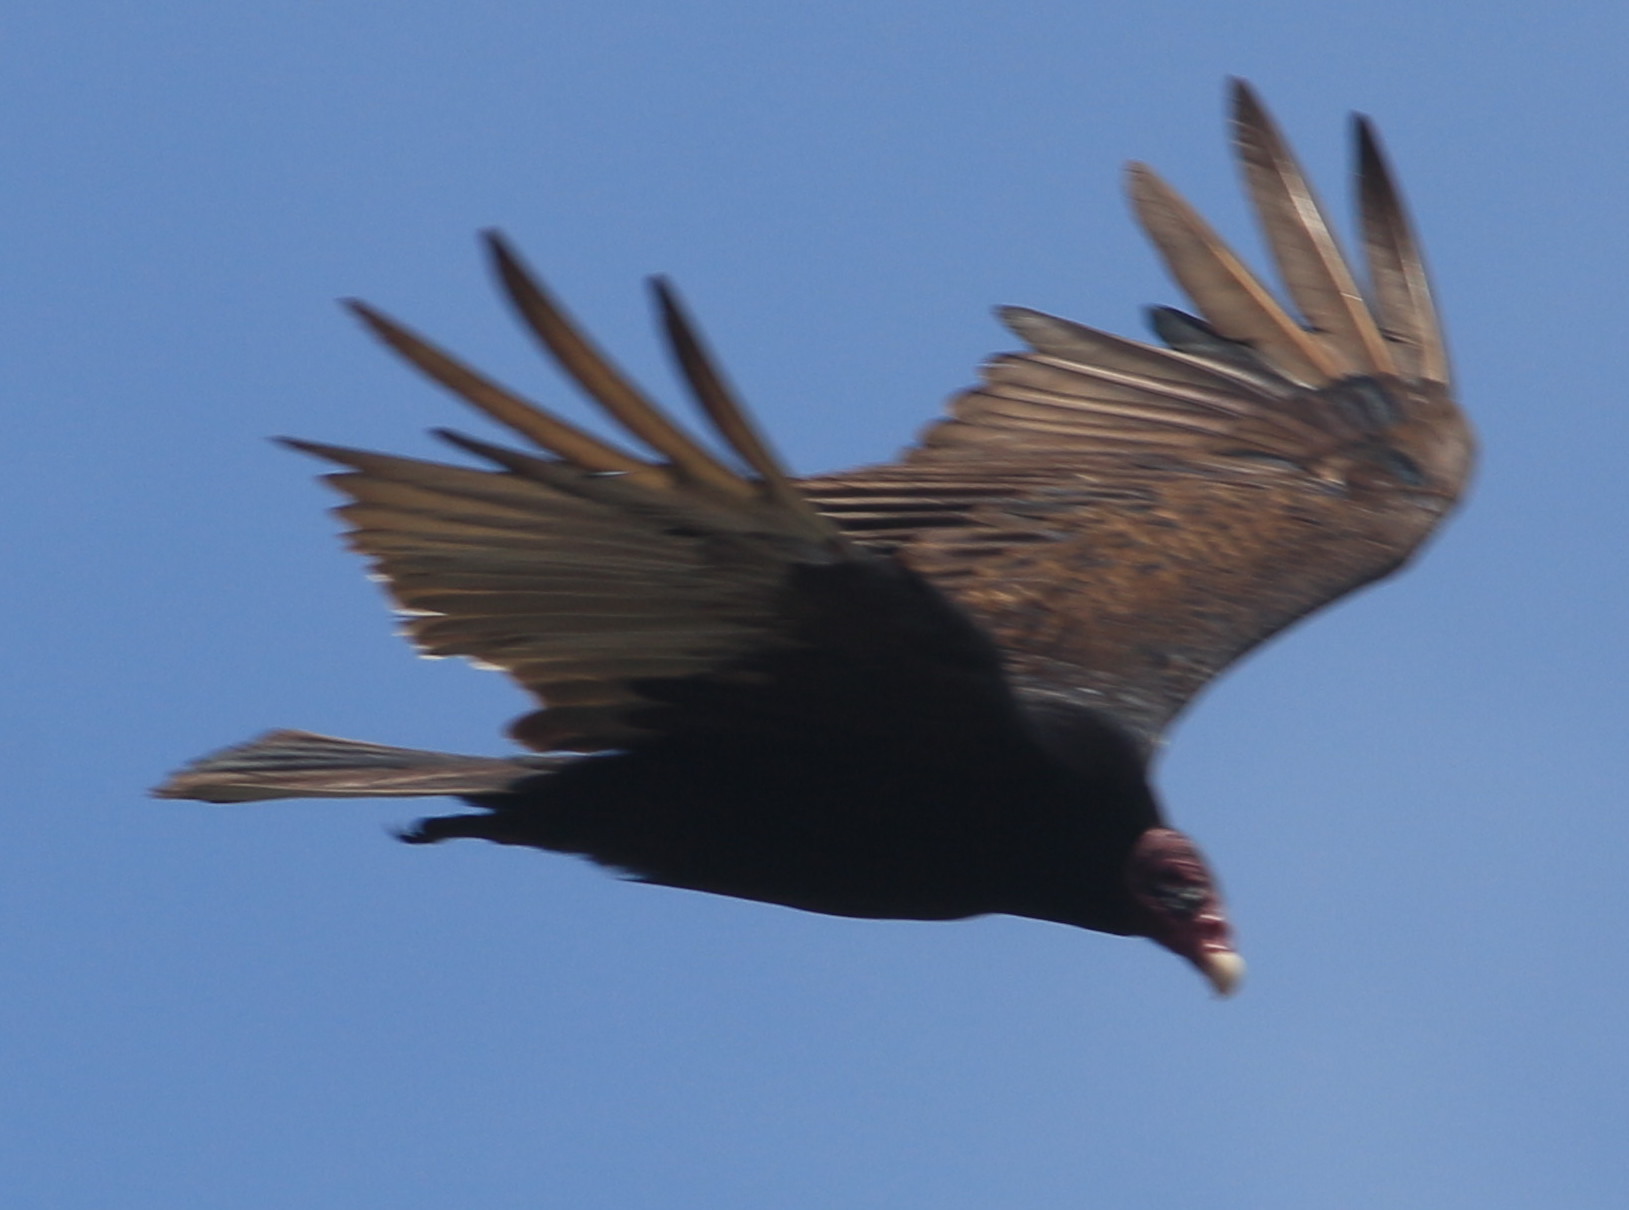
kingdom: Animalia
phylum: Chordata
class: Aves
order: Accipitriformes
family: Cathartidae
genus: Cathartes
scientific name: Cathartes aura
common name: Turkey vulture
